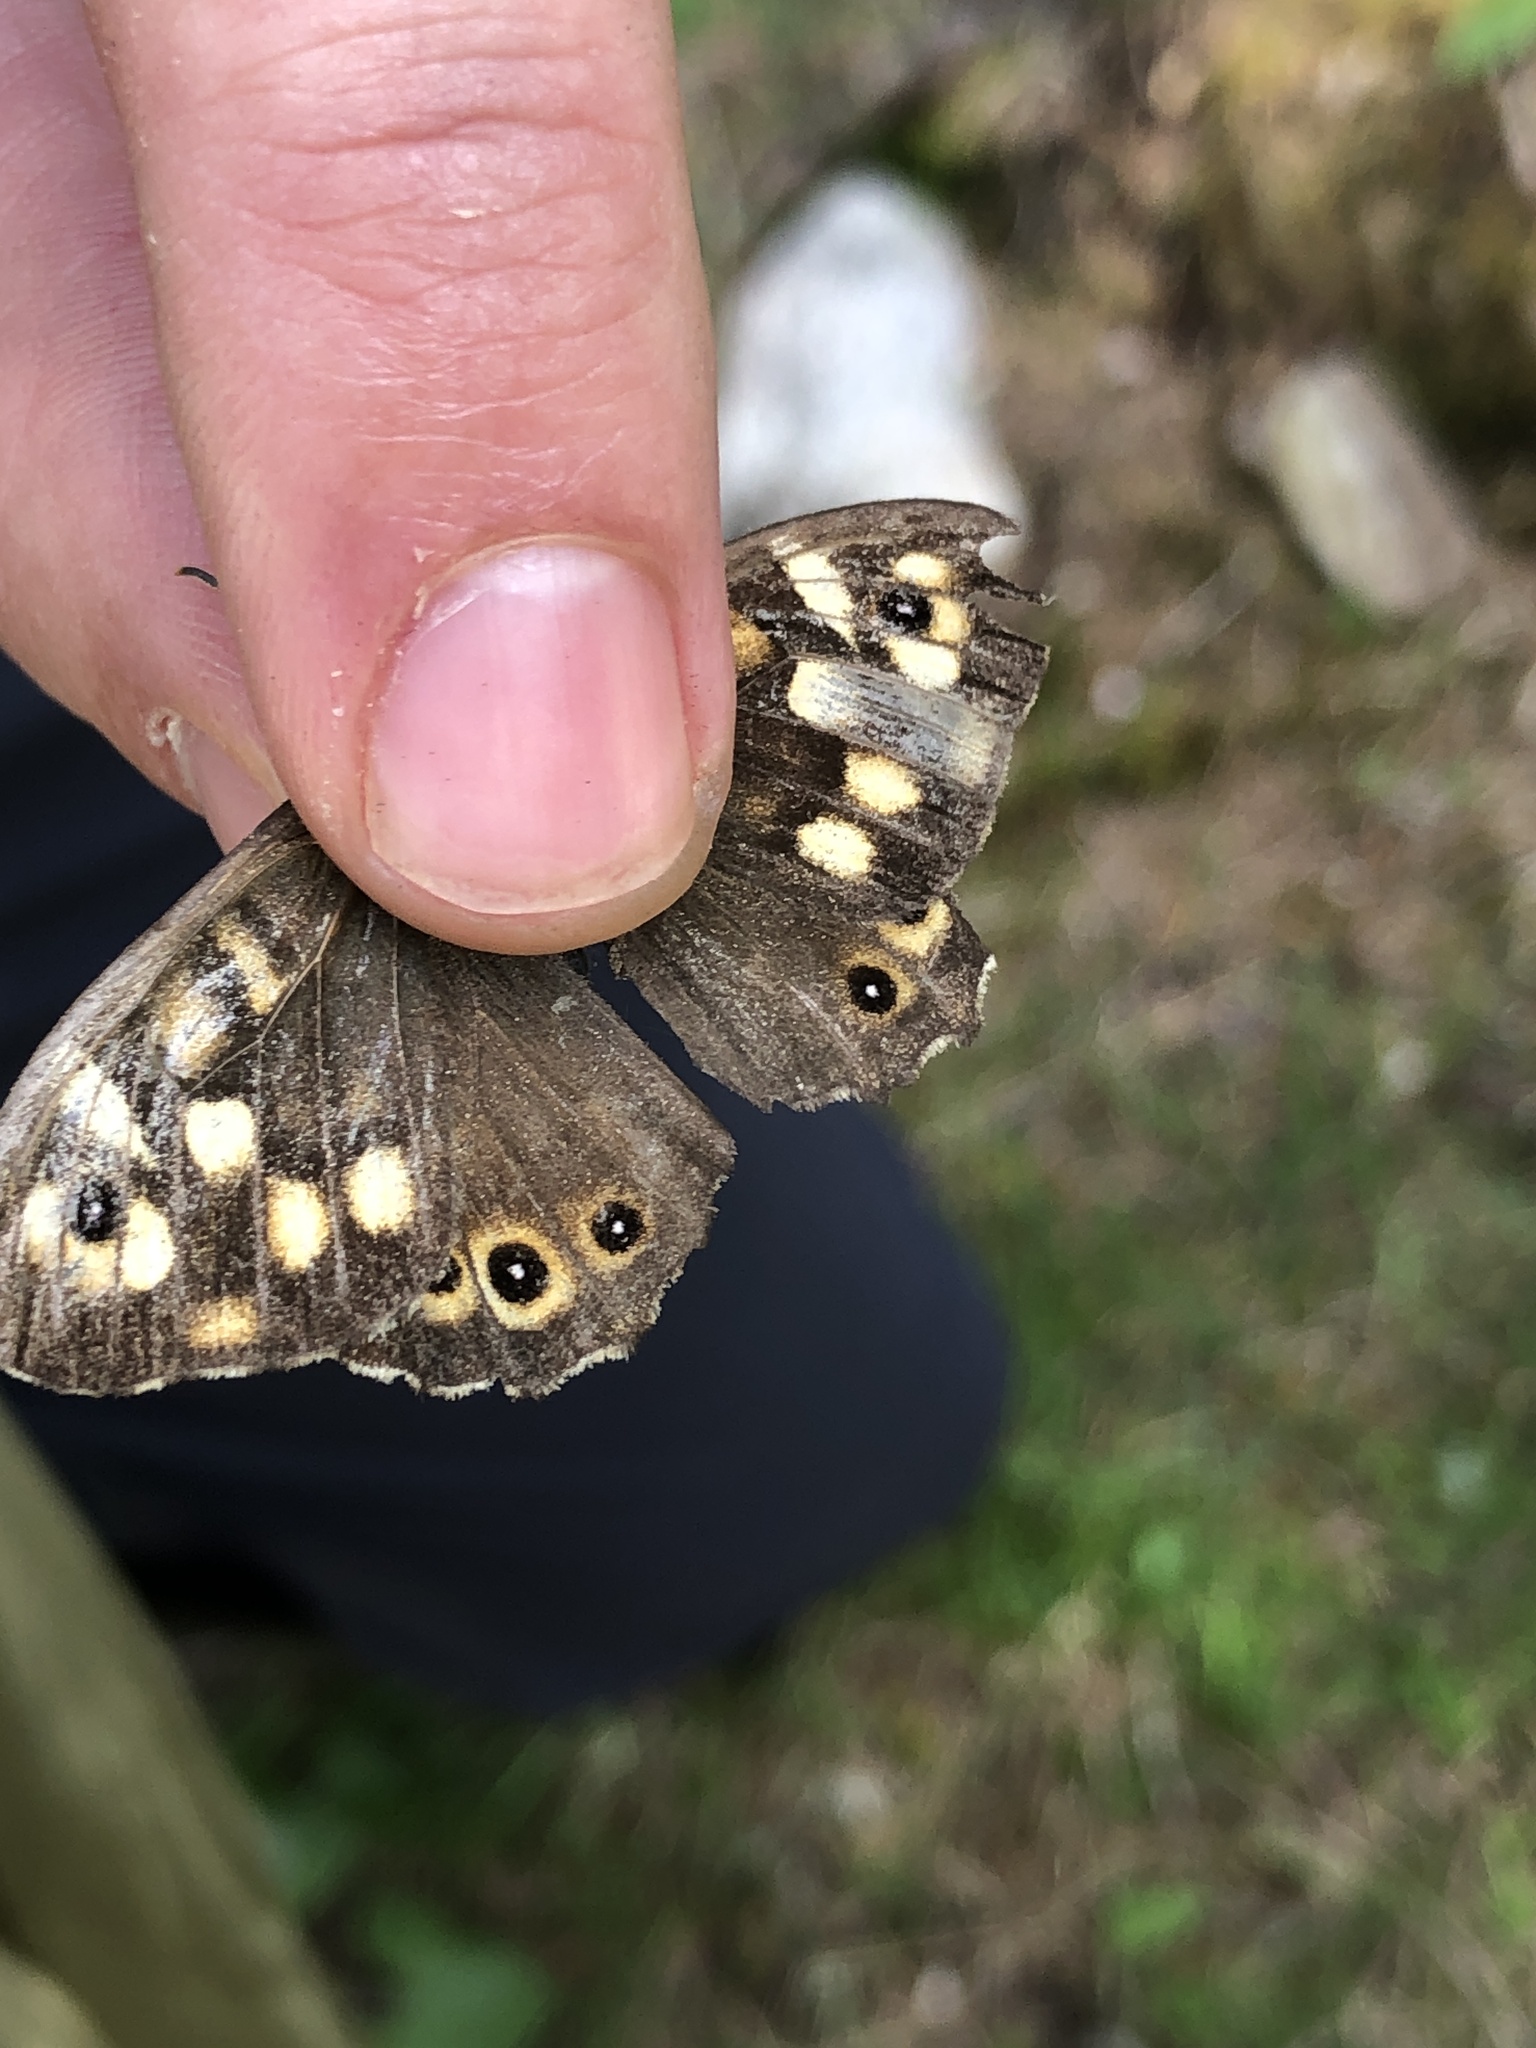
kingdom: Animalia
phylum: Arthropoda
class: Insecta
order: Lepidoptera
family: Nymphalidae
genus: Pararge
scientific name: Pararge aegeria
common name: Speckled wood
